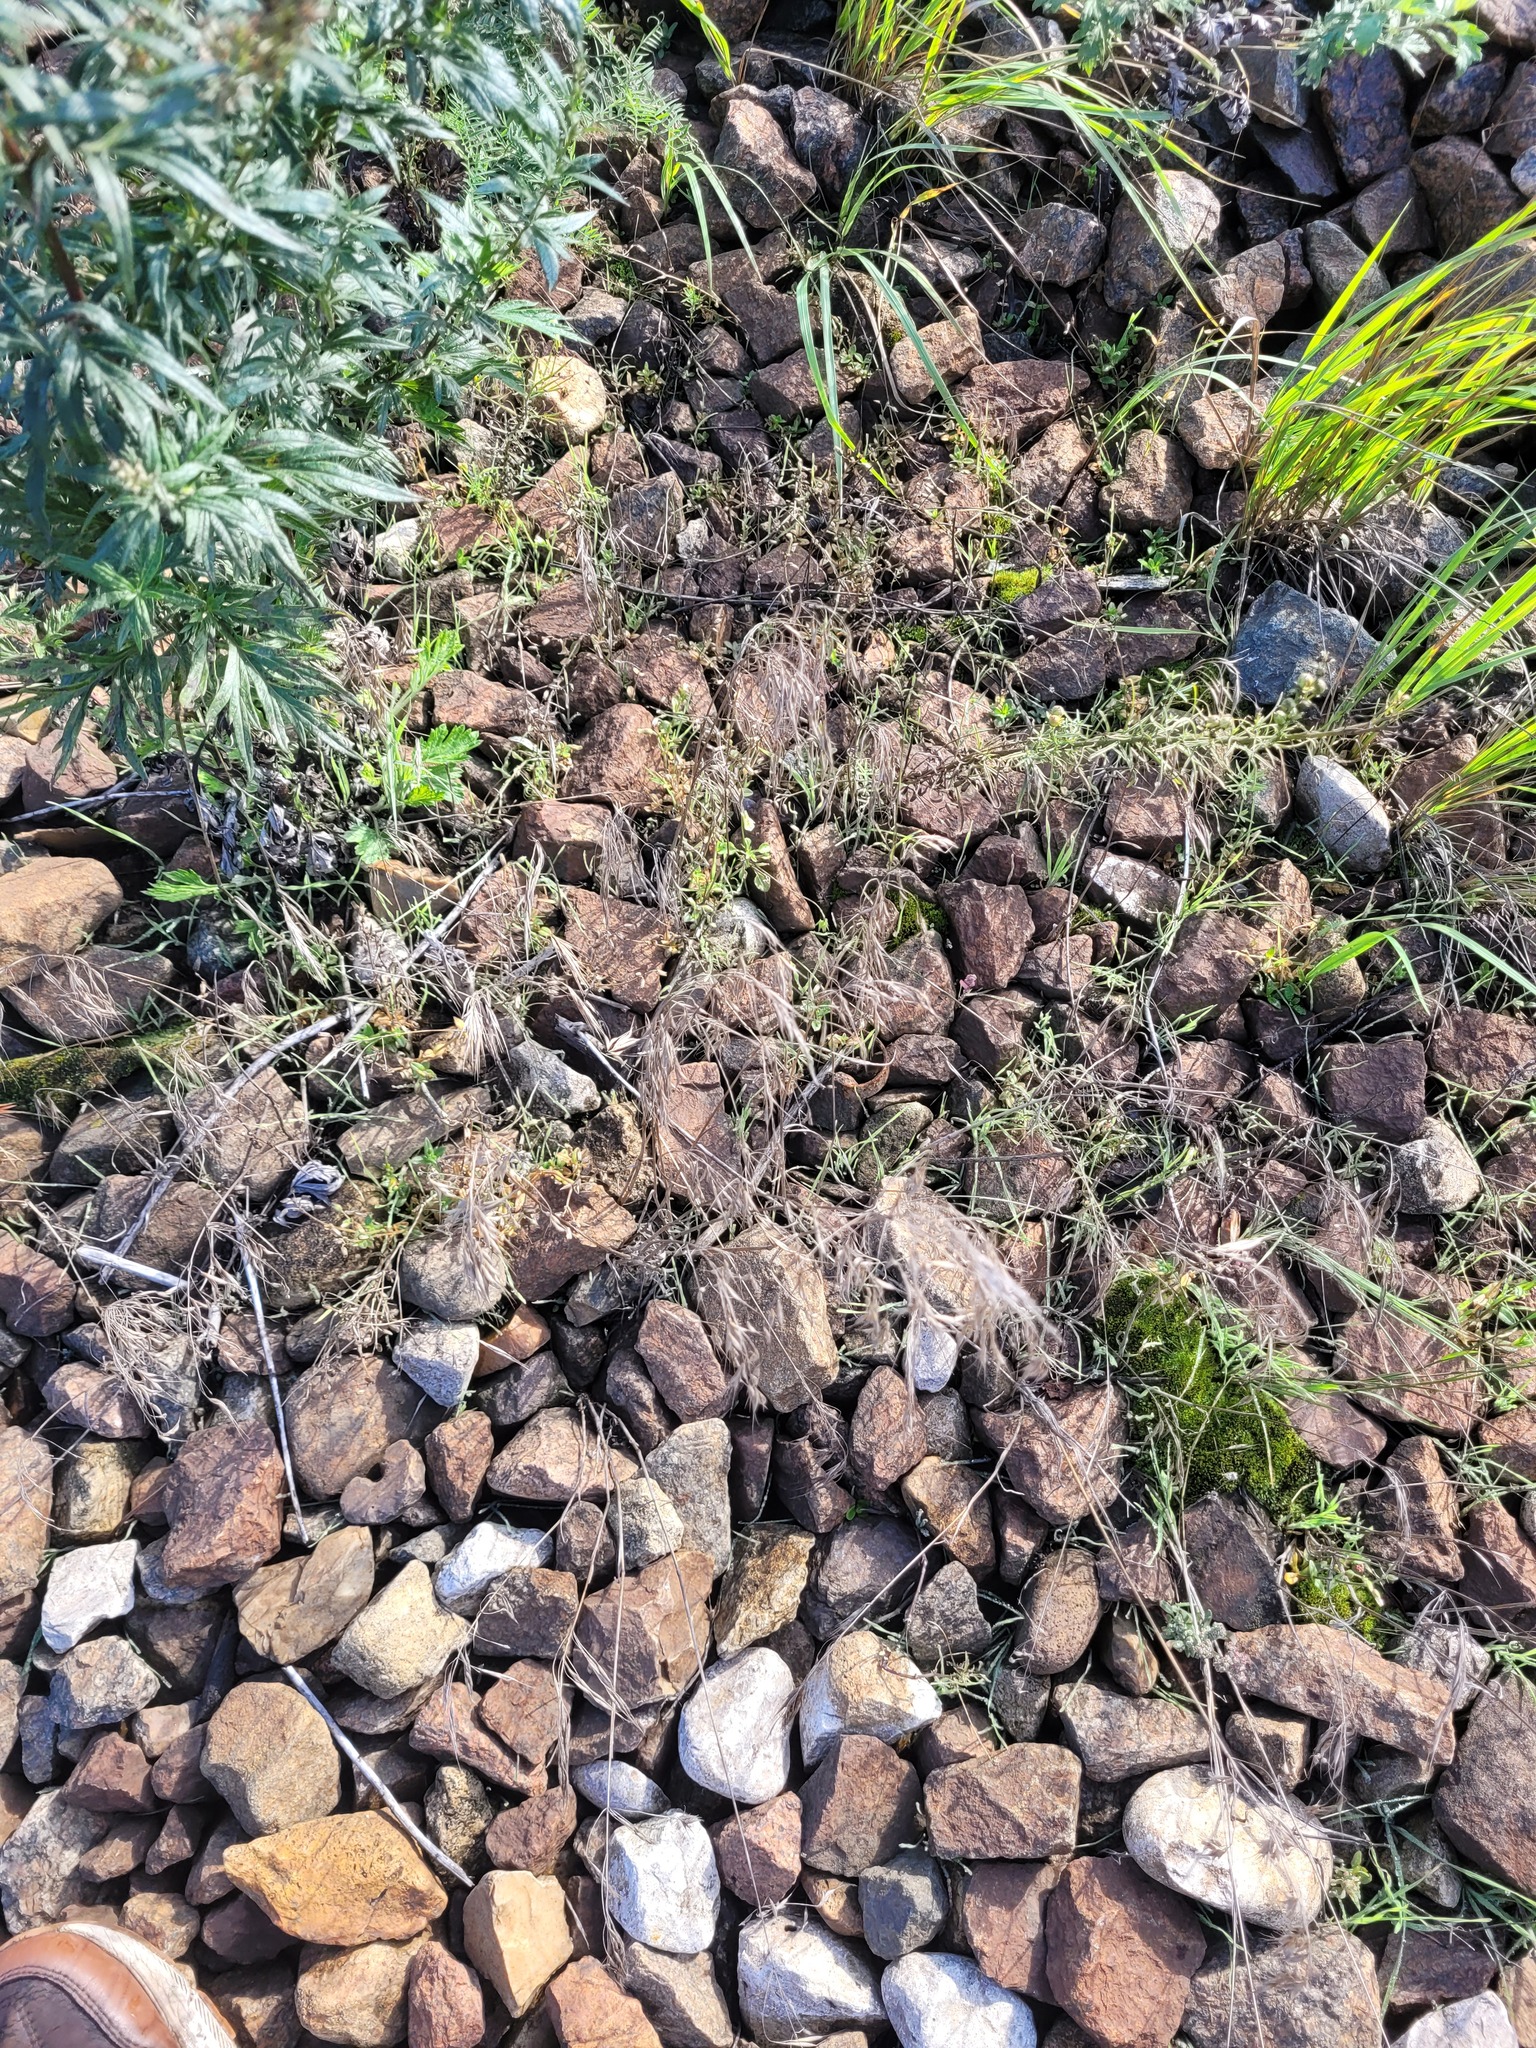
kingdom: Plantae
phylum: Tracheophyta
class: Liliopsida
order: Poales
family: Poaceae
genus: Bromus
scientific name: Bromus tectorum
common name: Cheatgrass
